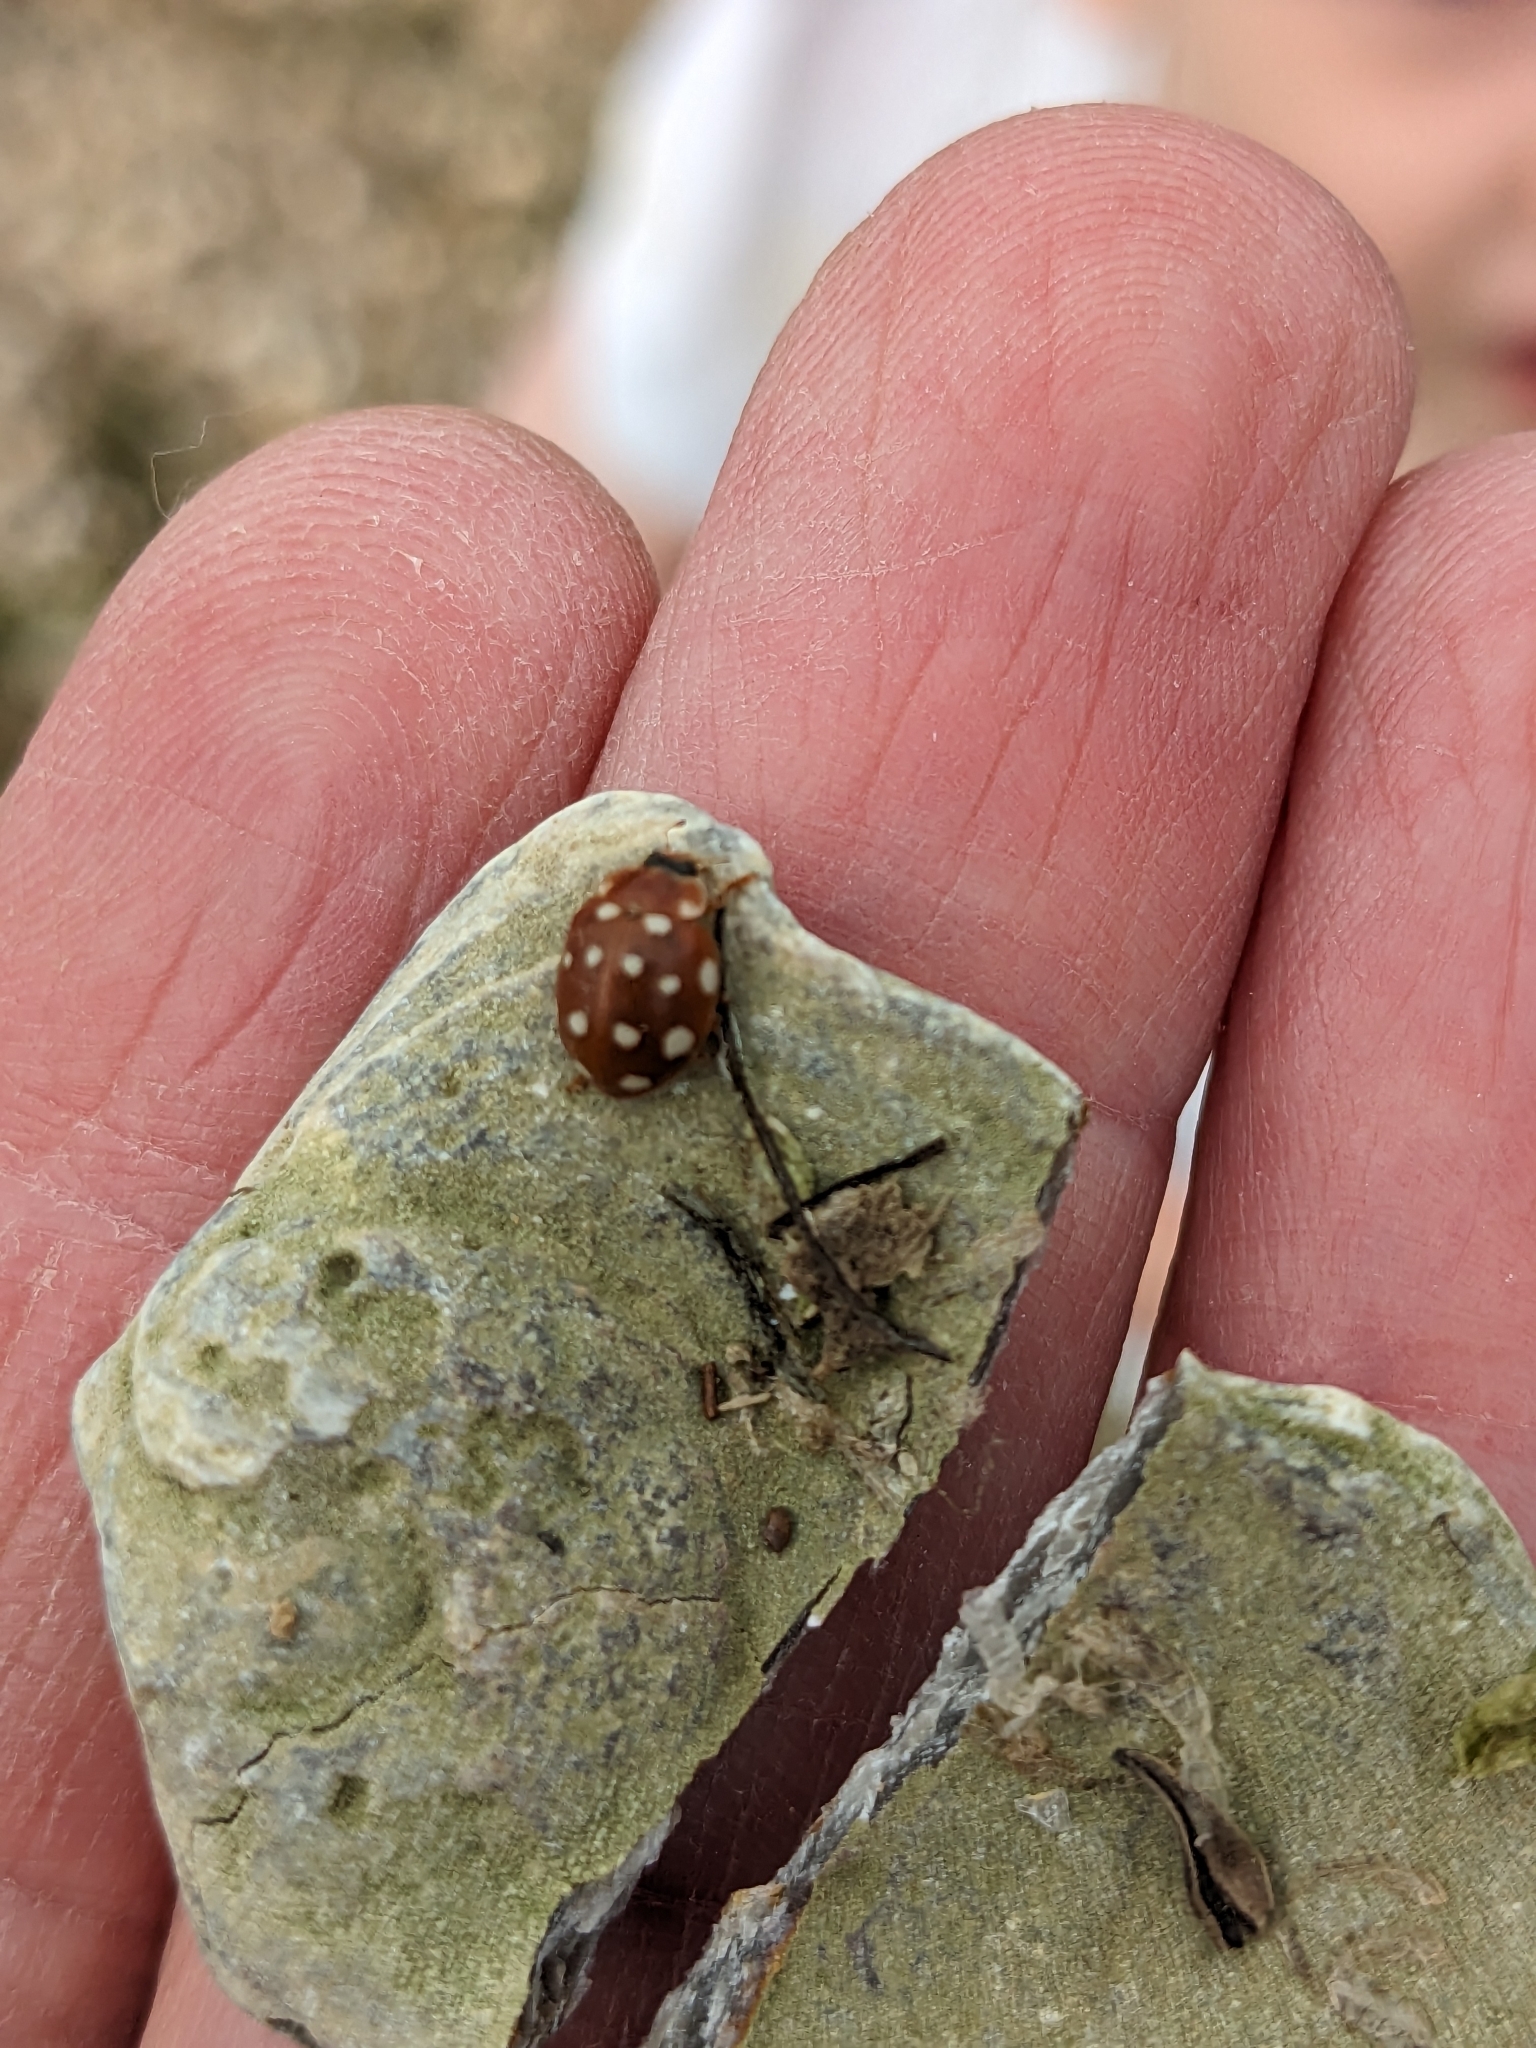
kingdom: Animalia
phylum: Arthropoda
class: Insecta
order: Coleoptera
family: Coccinellidae
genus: Calvia
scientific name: Calvia quatuordecimguttata
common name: Cream-spot ladybird
